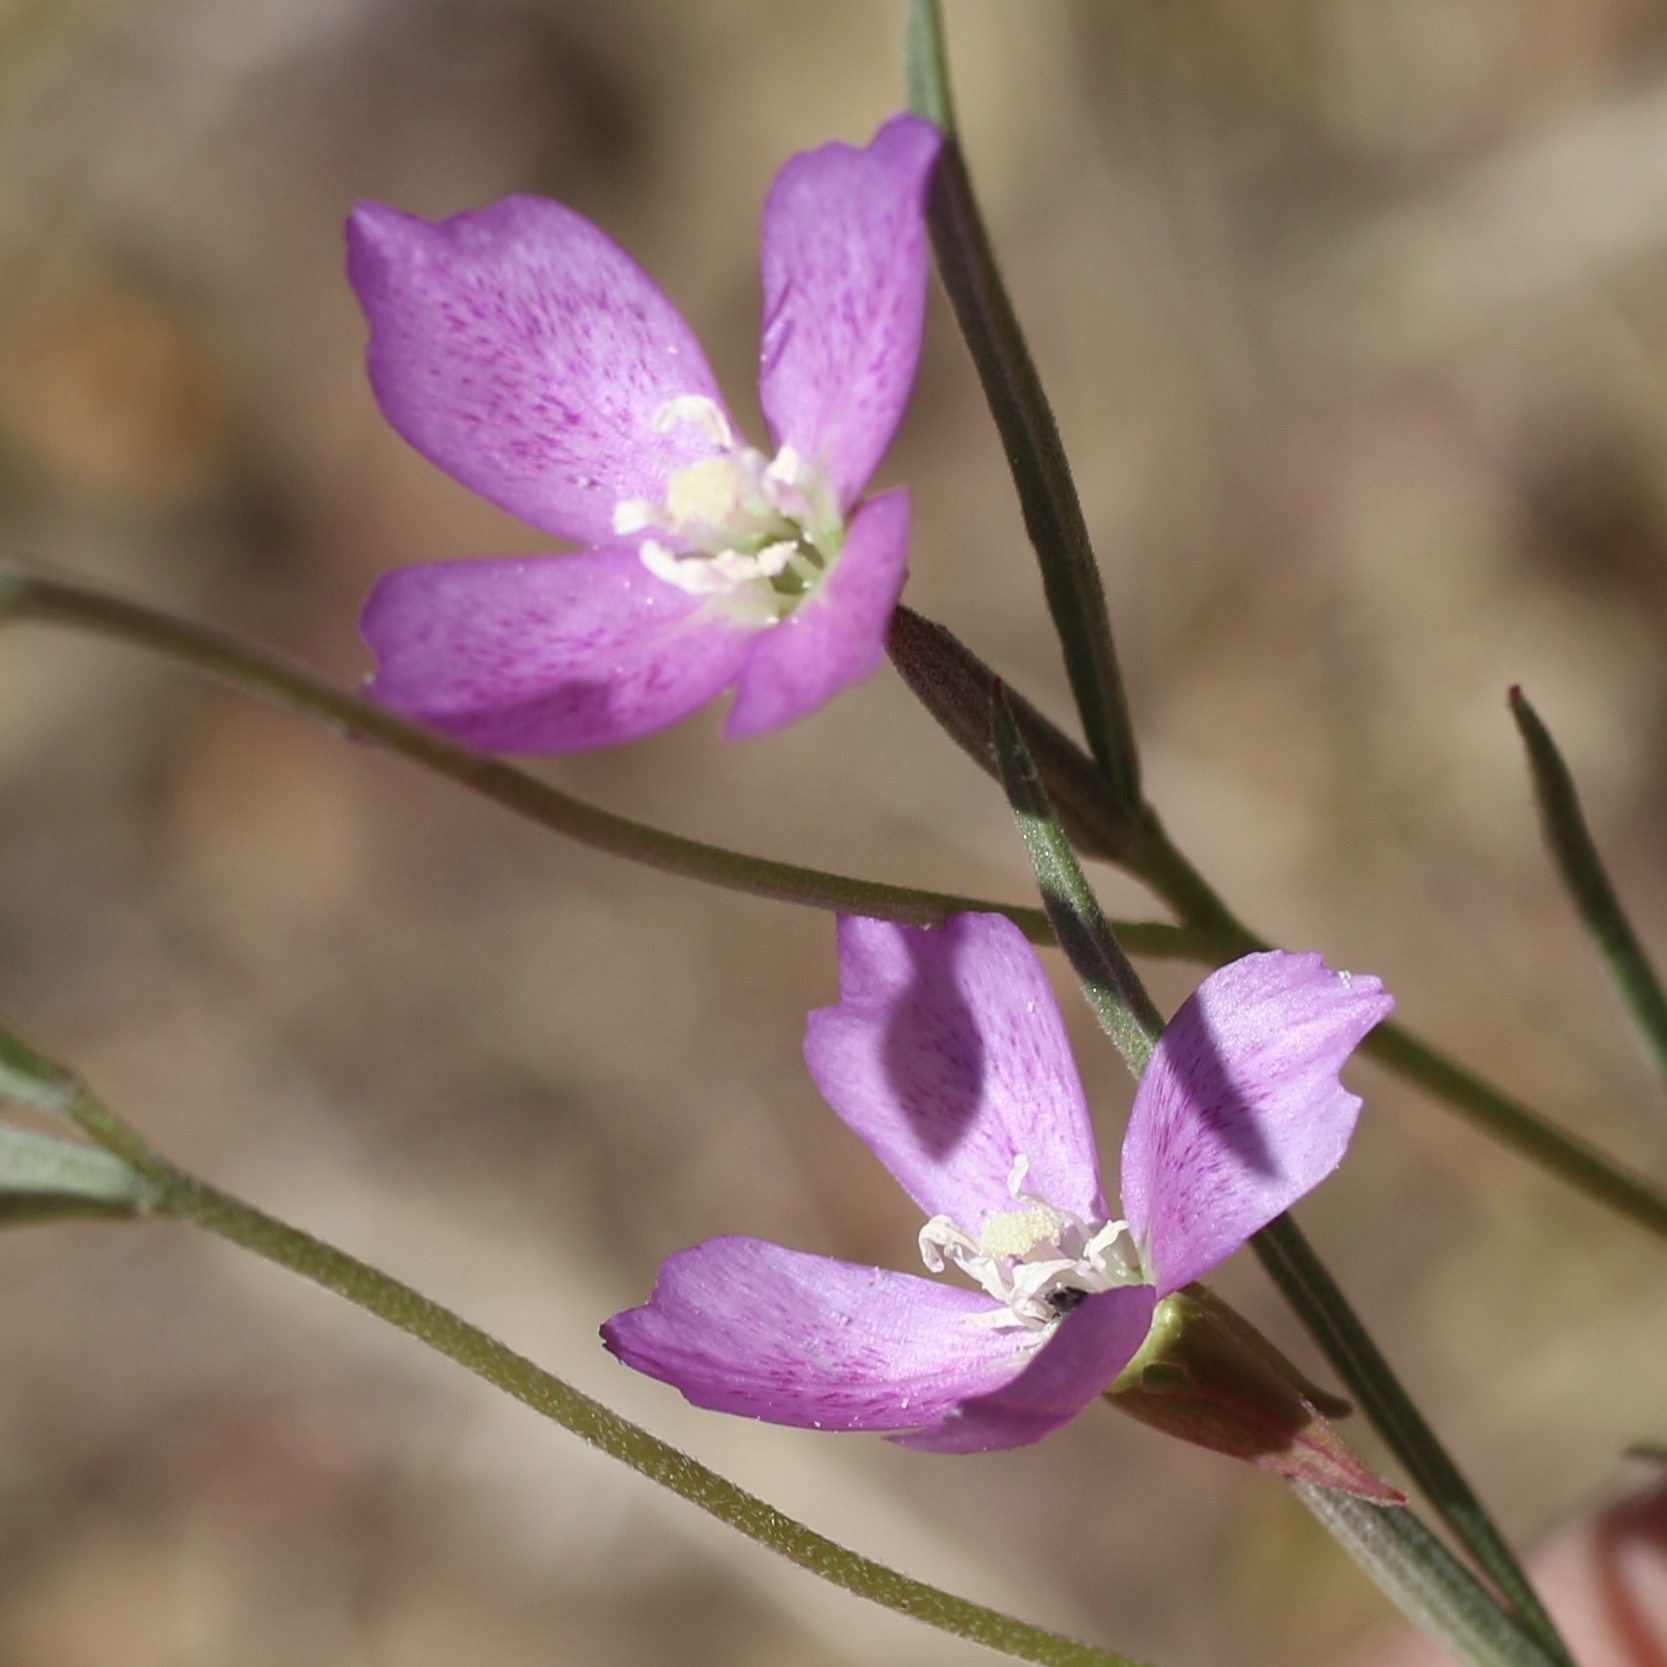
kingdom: Plantae
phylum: Tracheophyta
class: Magnoliopsida
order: Myrtales
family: Onagraceae
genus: Clarkia
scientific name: Clarkia affinis
